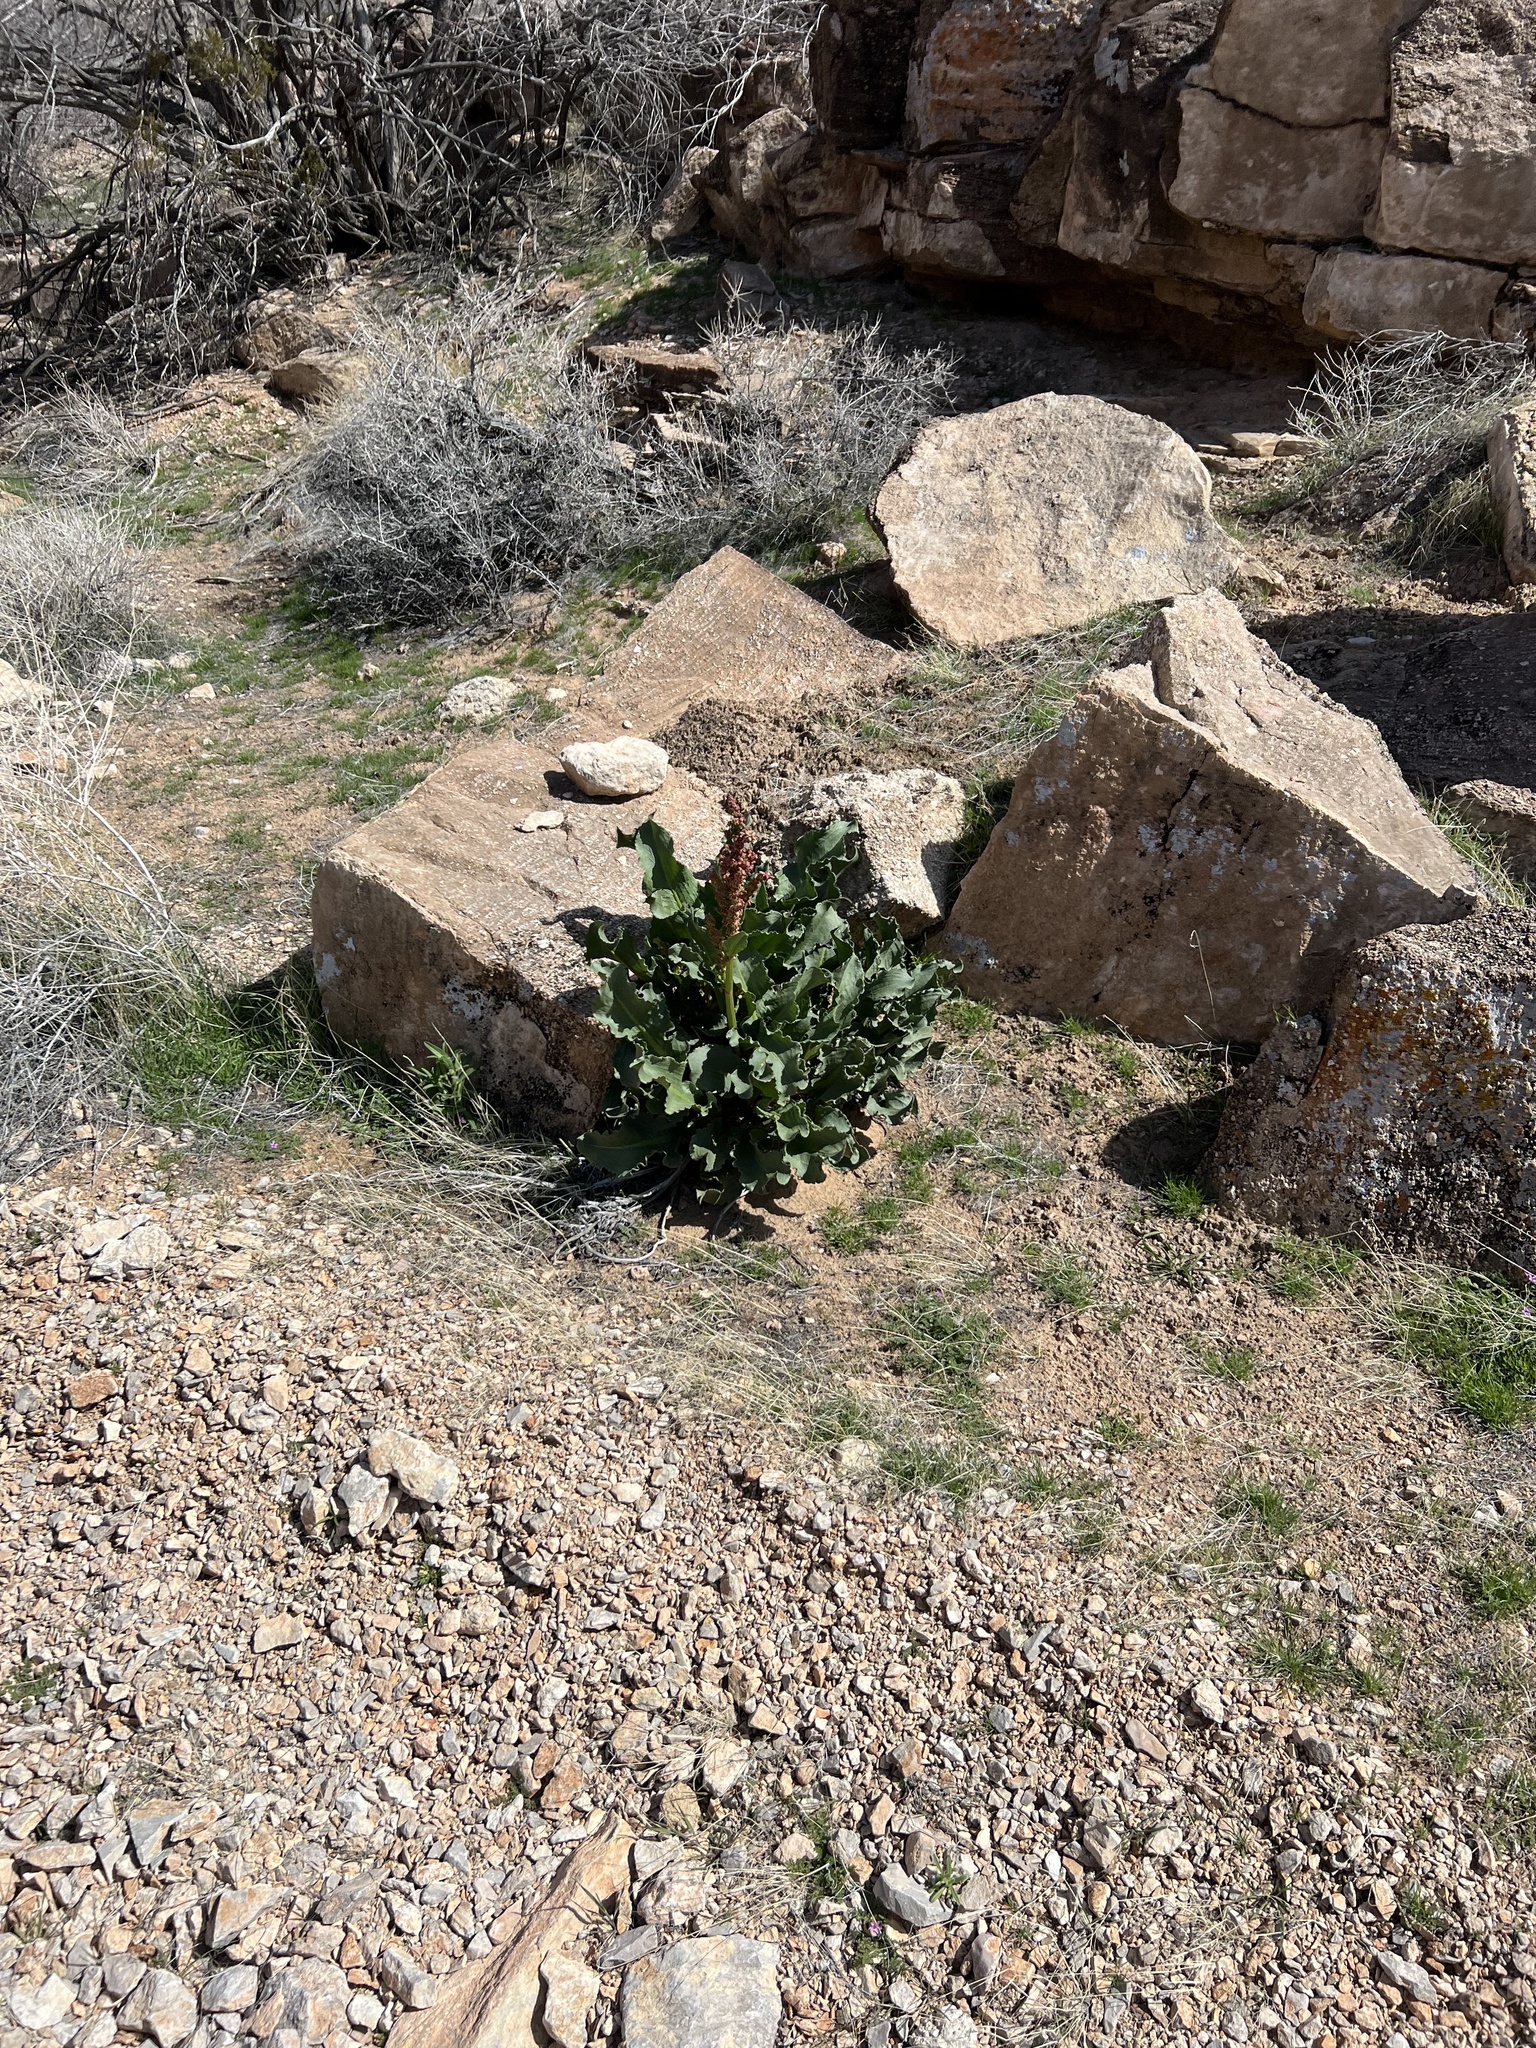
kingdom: Plantae
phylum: Tracheophyta
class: Magnoliopsida
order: Caryophyllales
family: Polygonaceae
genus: Rumex
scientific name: Rumex hymenosepalus
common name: Ganagra
